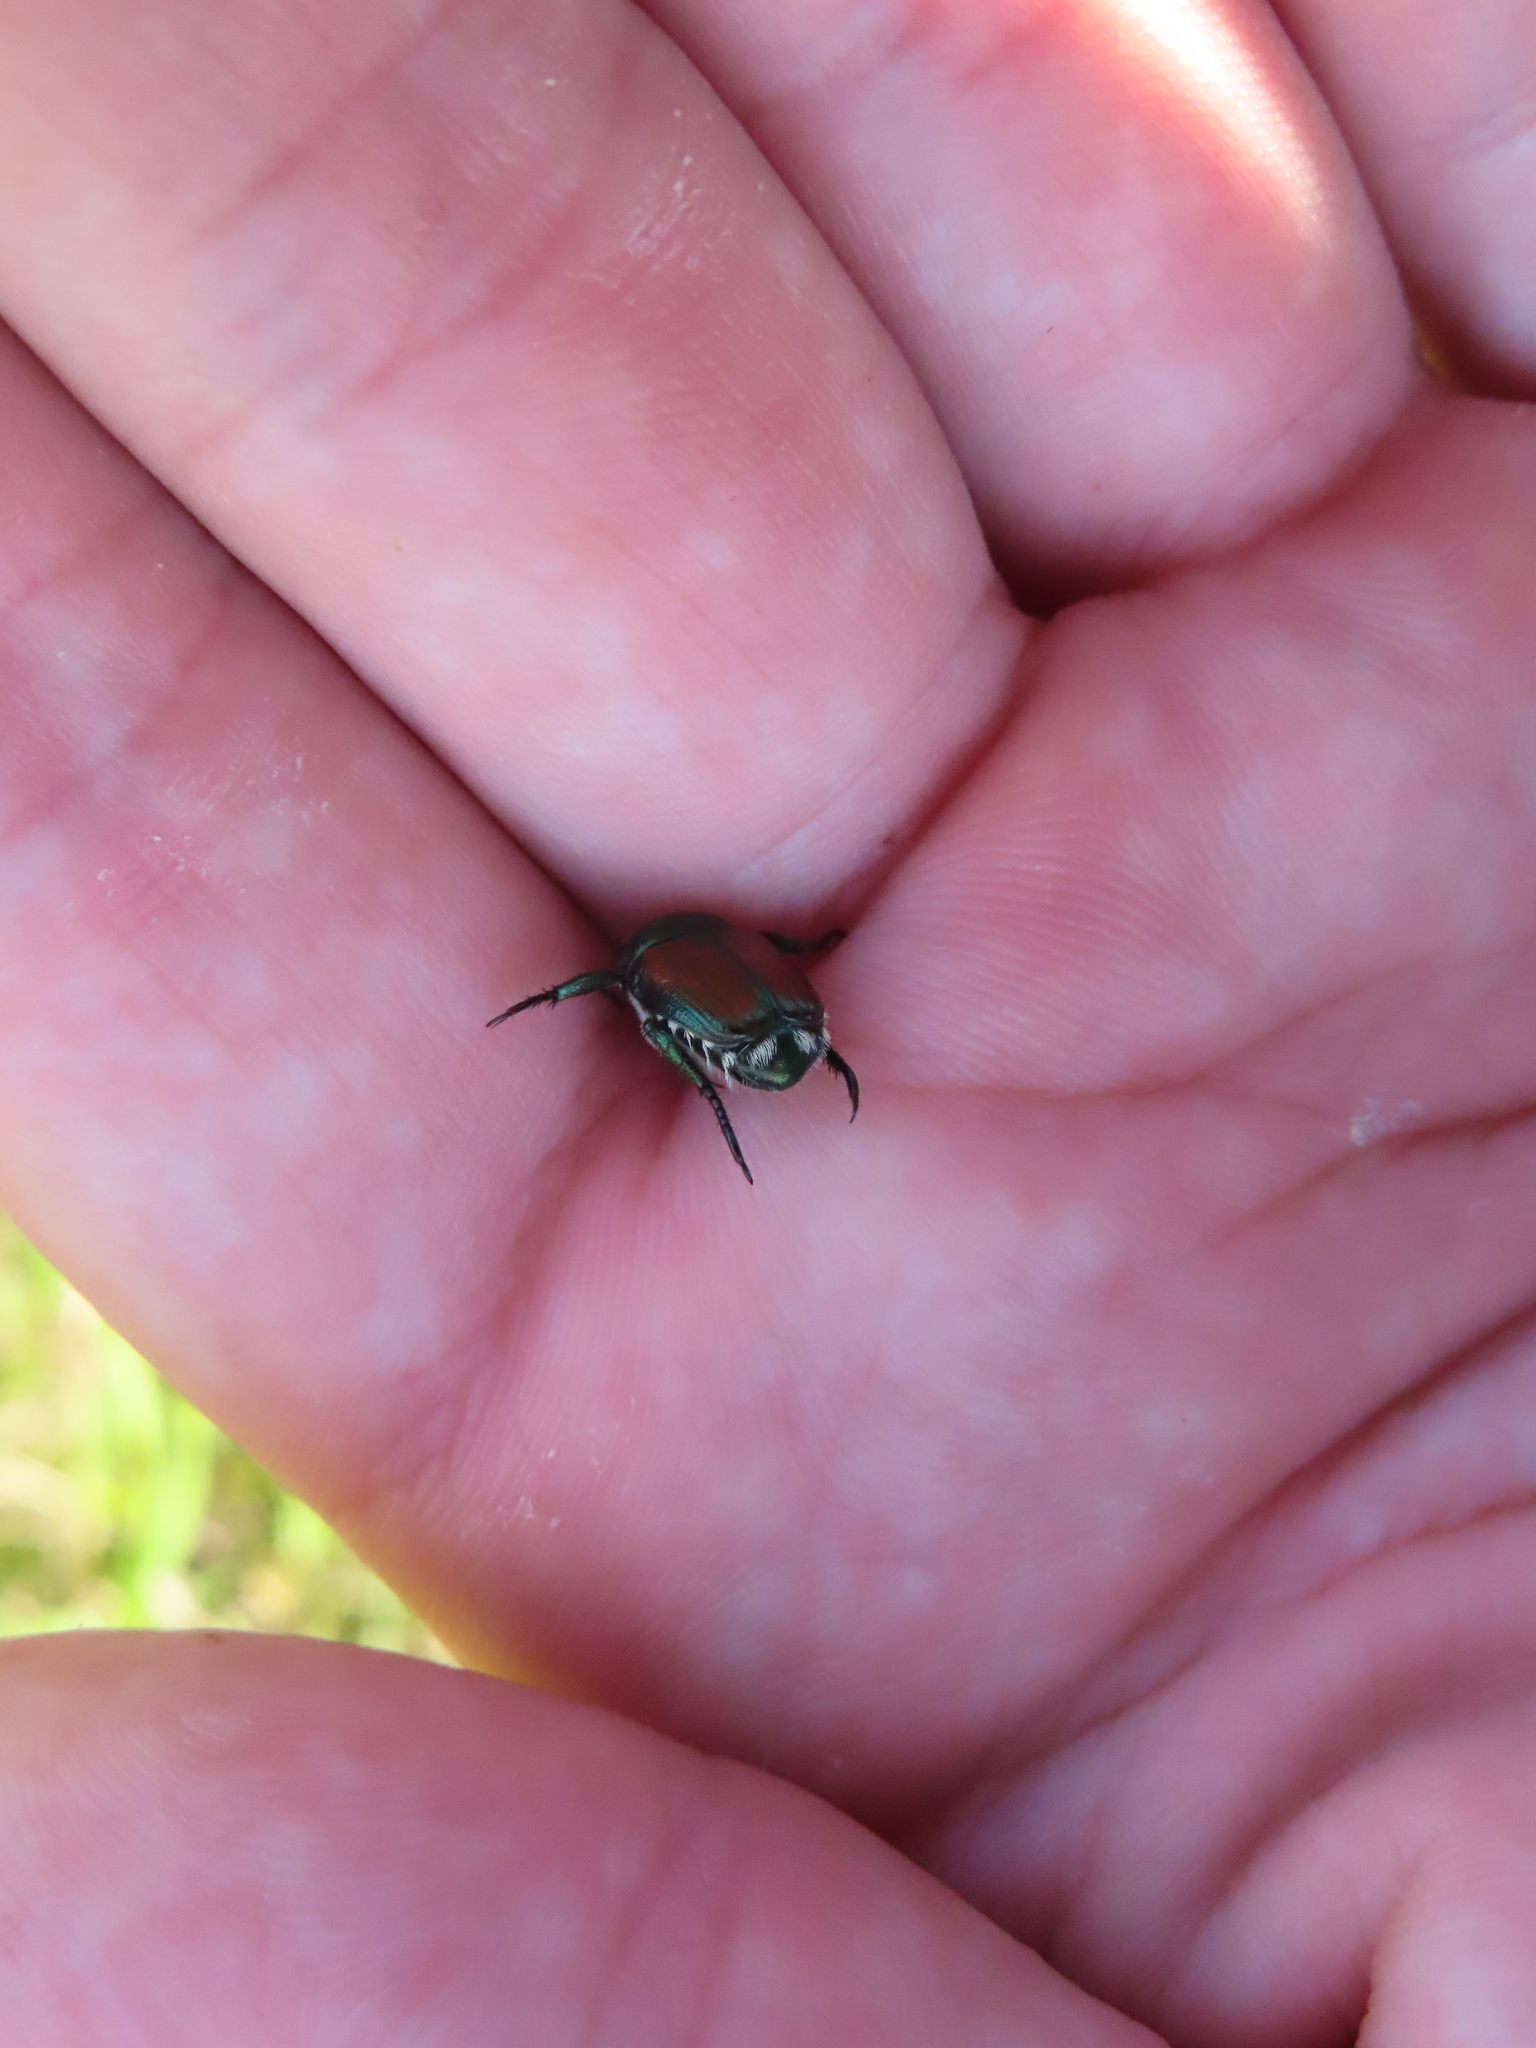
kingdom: Animalia
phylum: Arthropoda
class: Insecta
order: Coleoptera
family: Scarabaeidae
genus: Popillia
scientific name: Popillia japonica
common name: Japanese beetle
